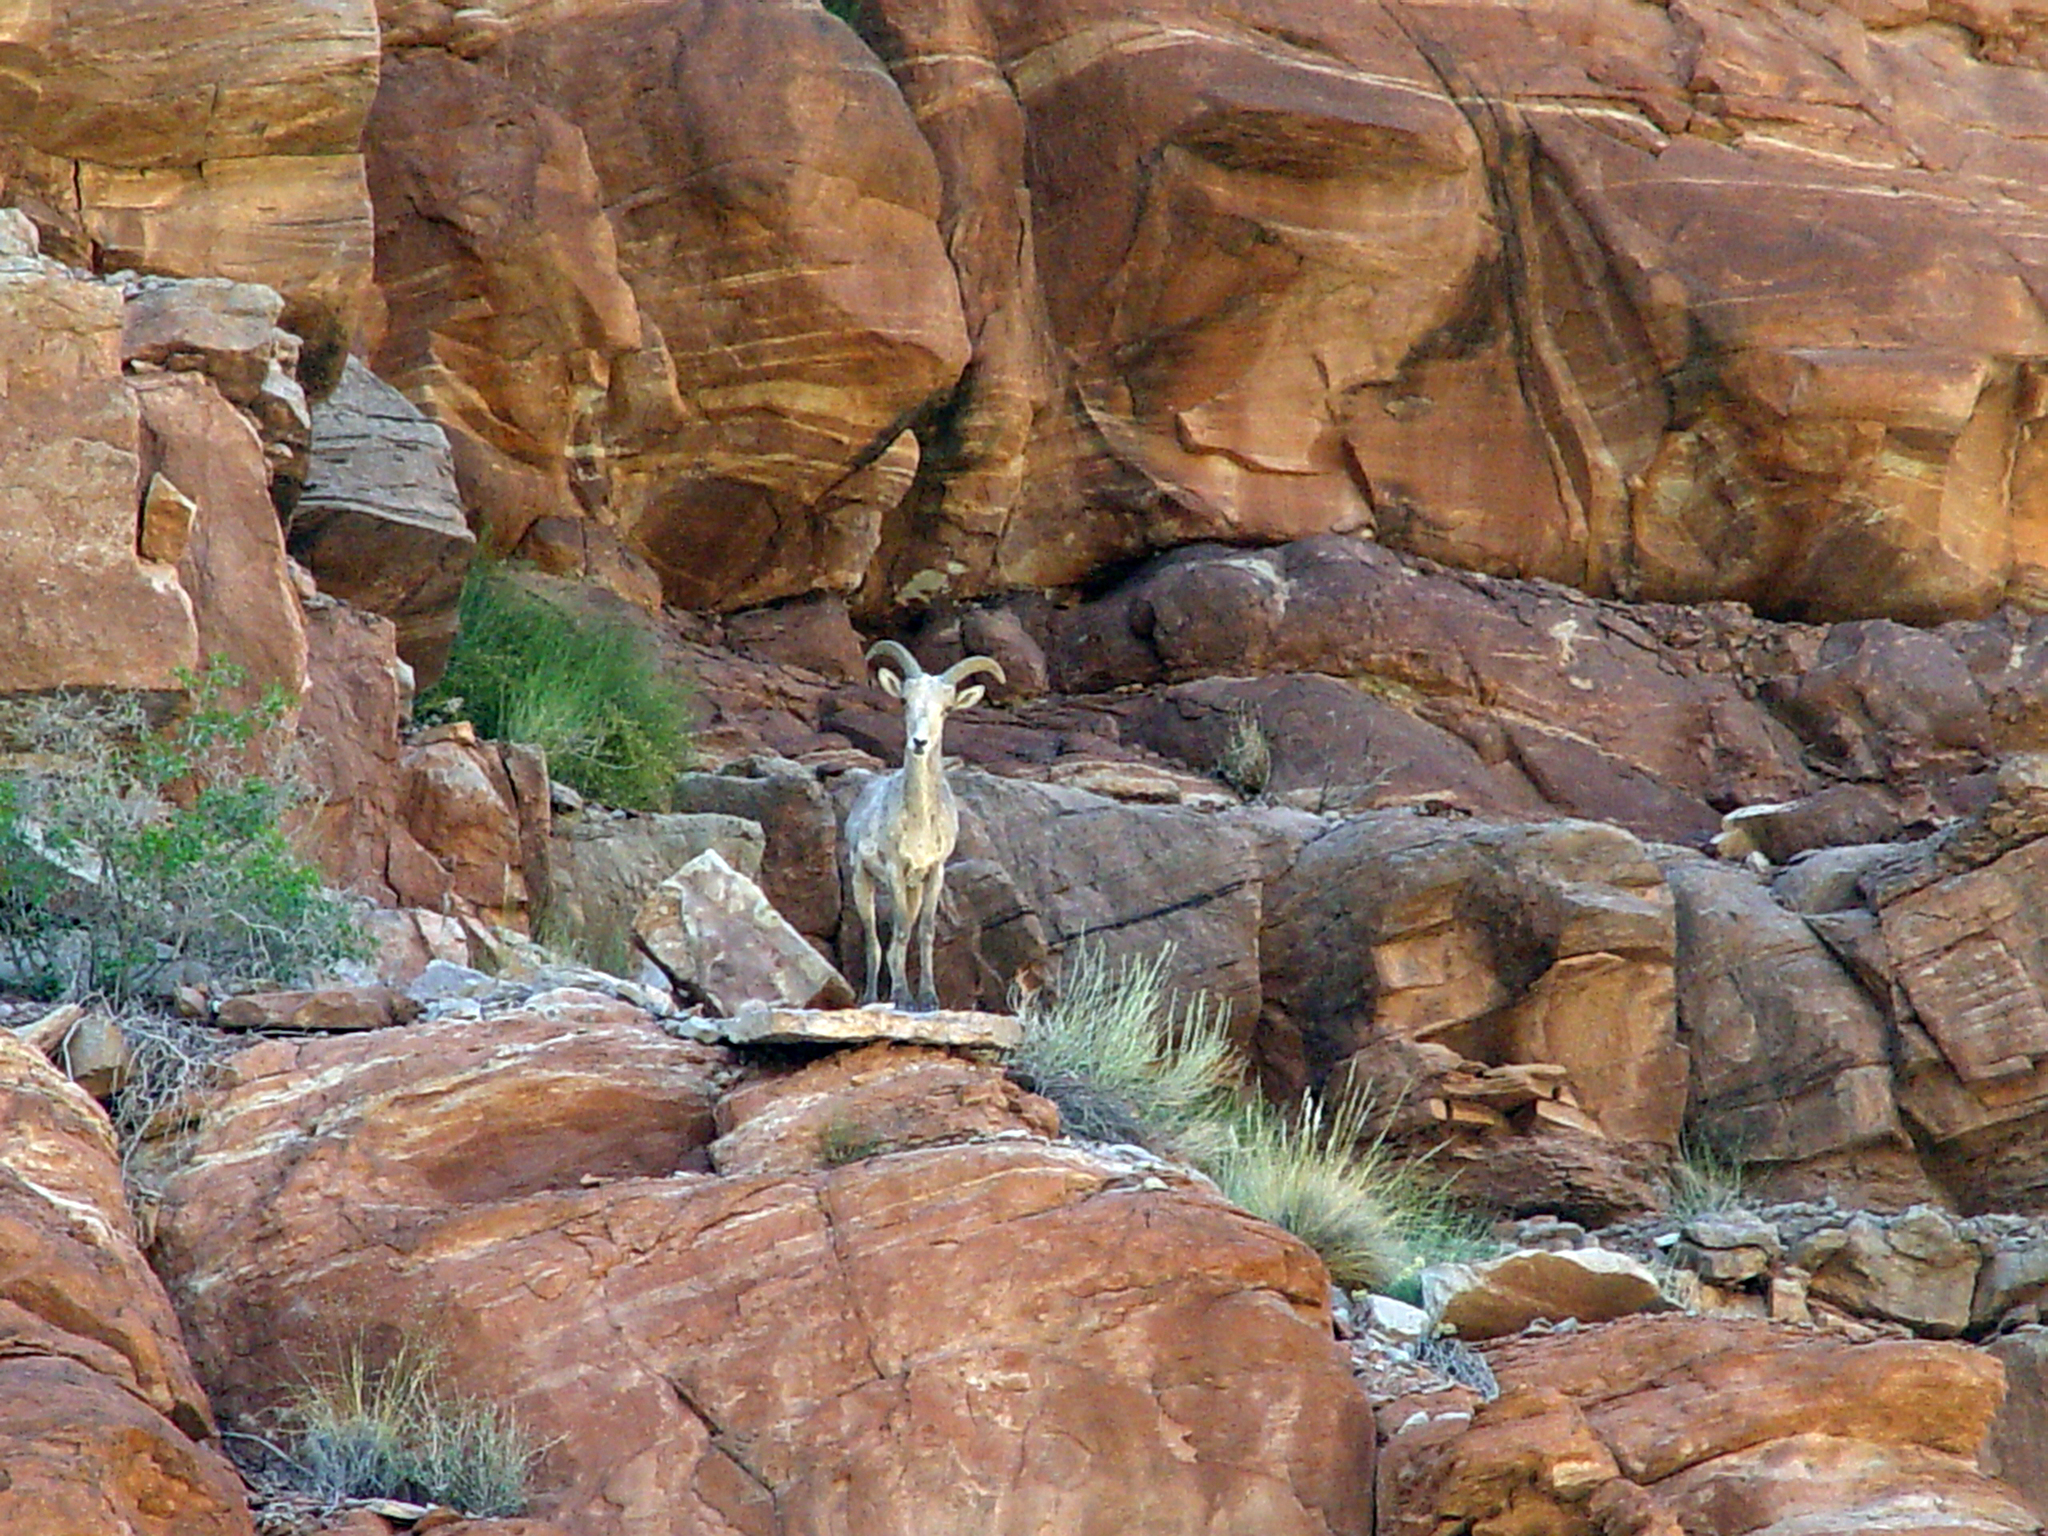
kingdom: Animalia
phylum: Chordata
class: Mammalia
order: Artiodactyla
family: Bovidae
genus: Ovis
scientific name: Ovis canadensis
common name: Bighorn sheep
